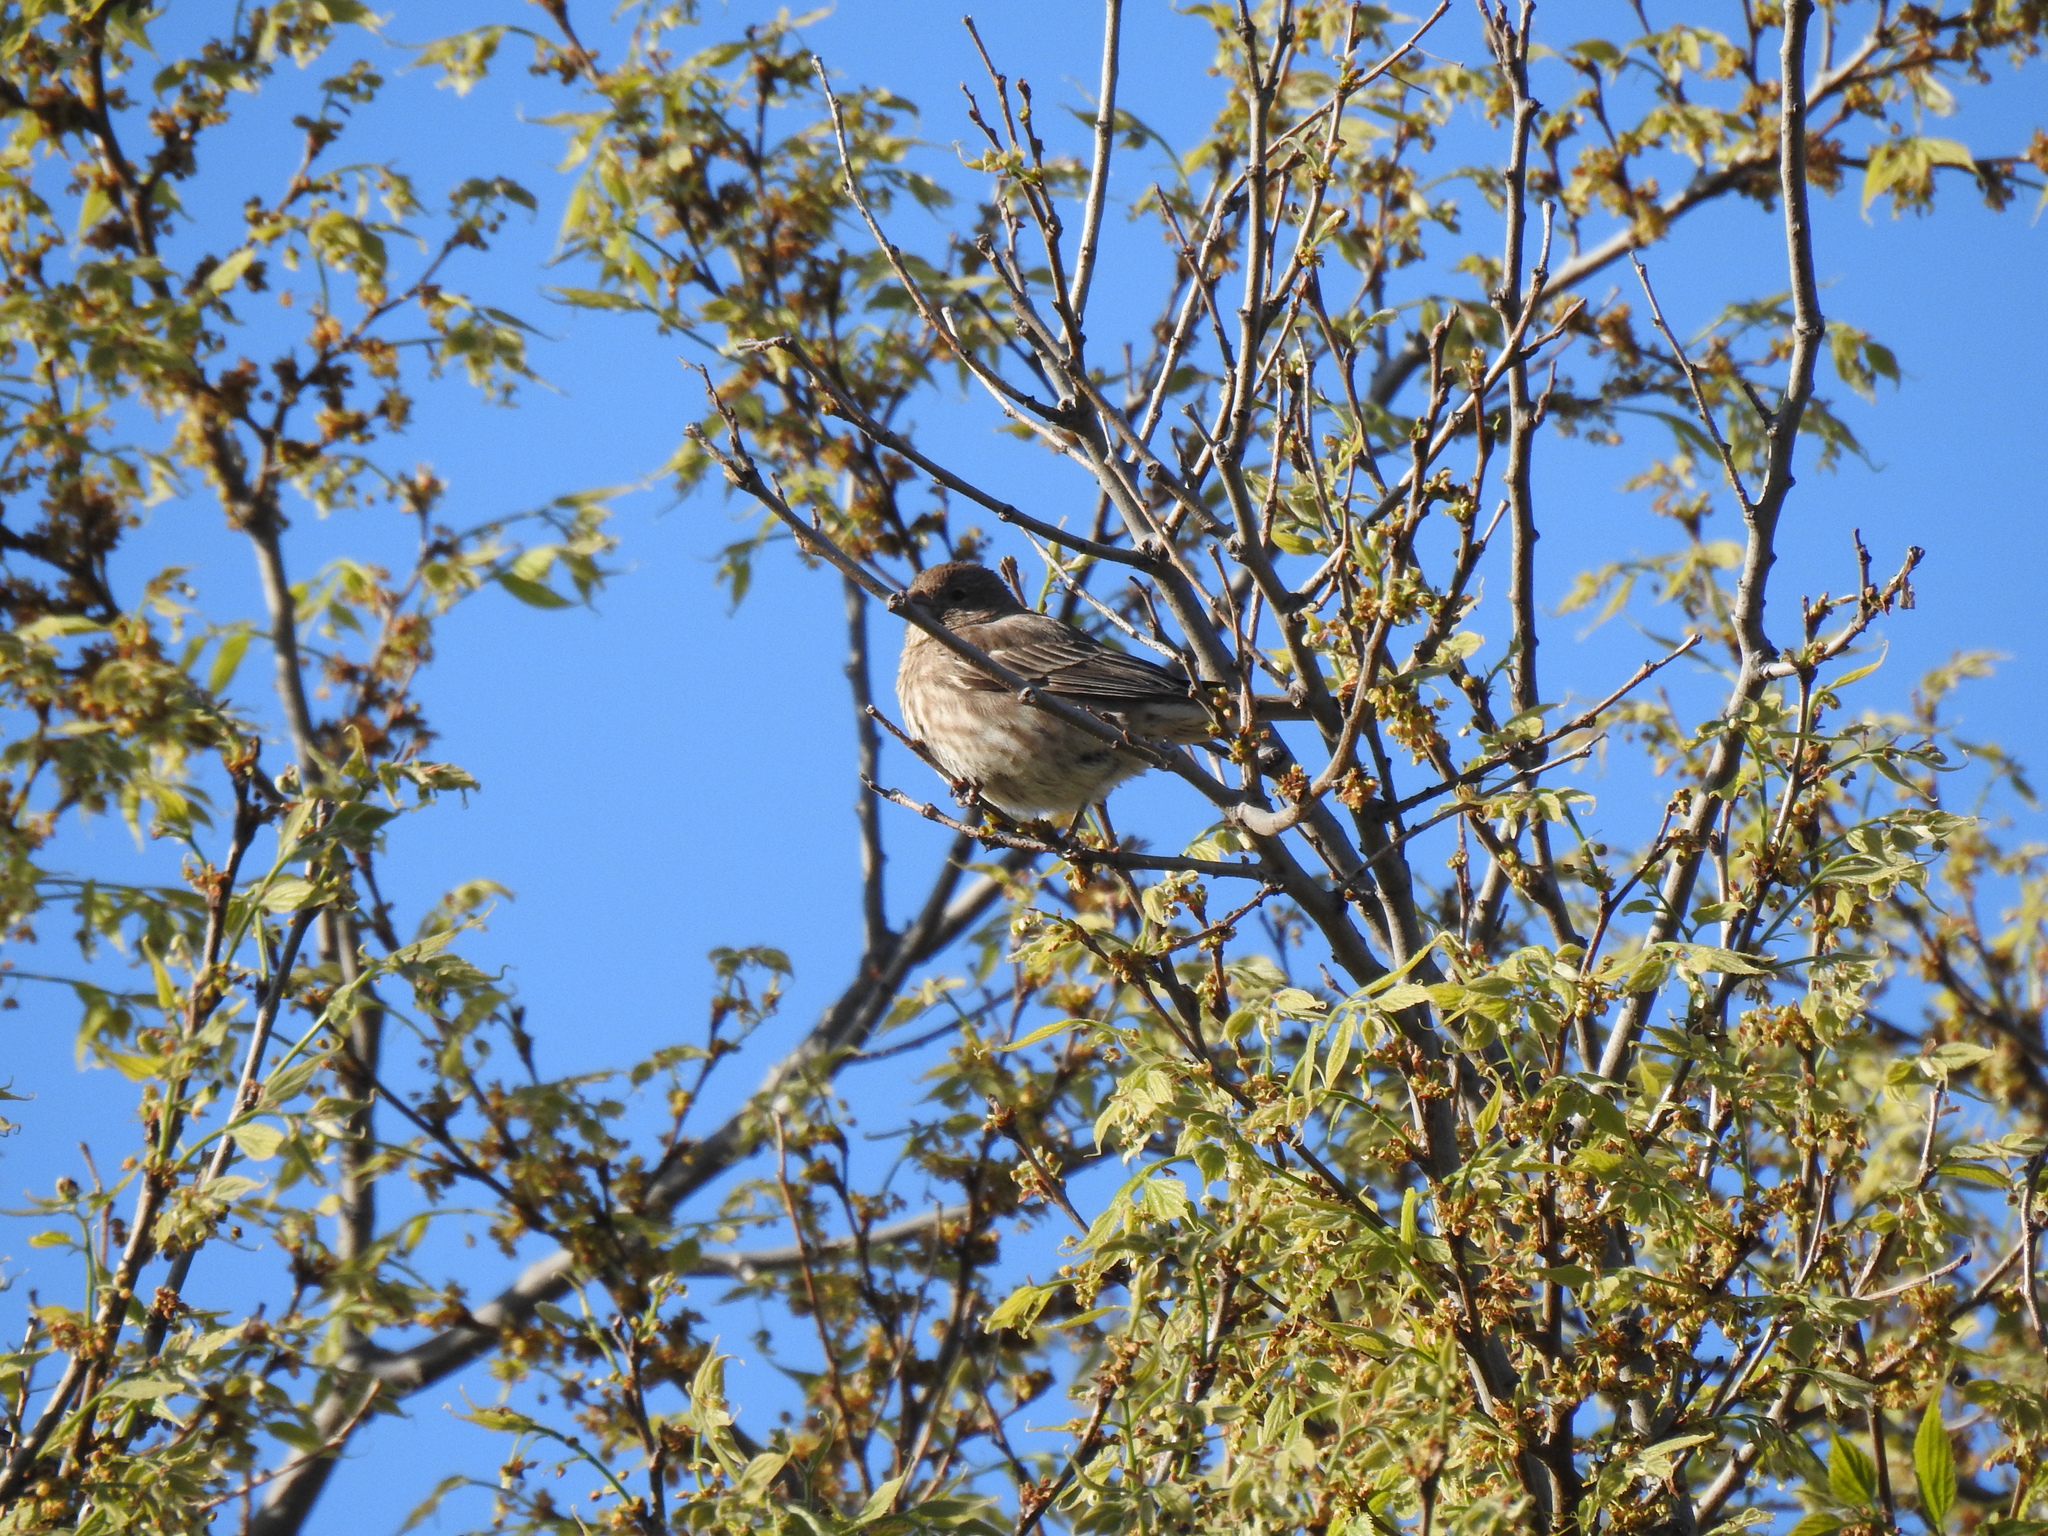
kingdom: Animalia
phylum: Chordata
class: Aves
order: Passeriformes
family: Fringillidae
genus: Haemorhous
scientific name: Haemorhous mexicanus
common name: House finch
